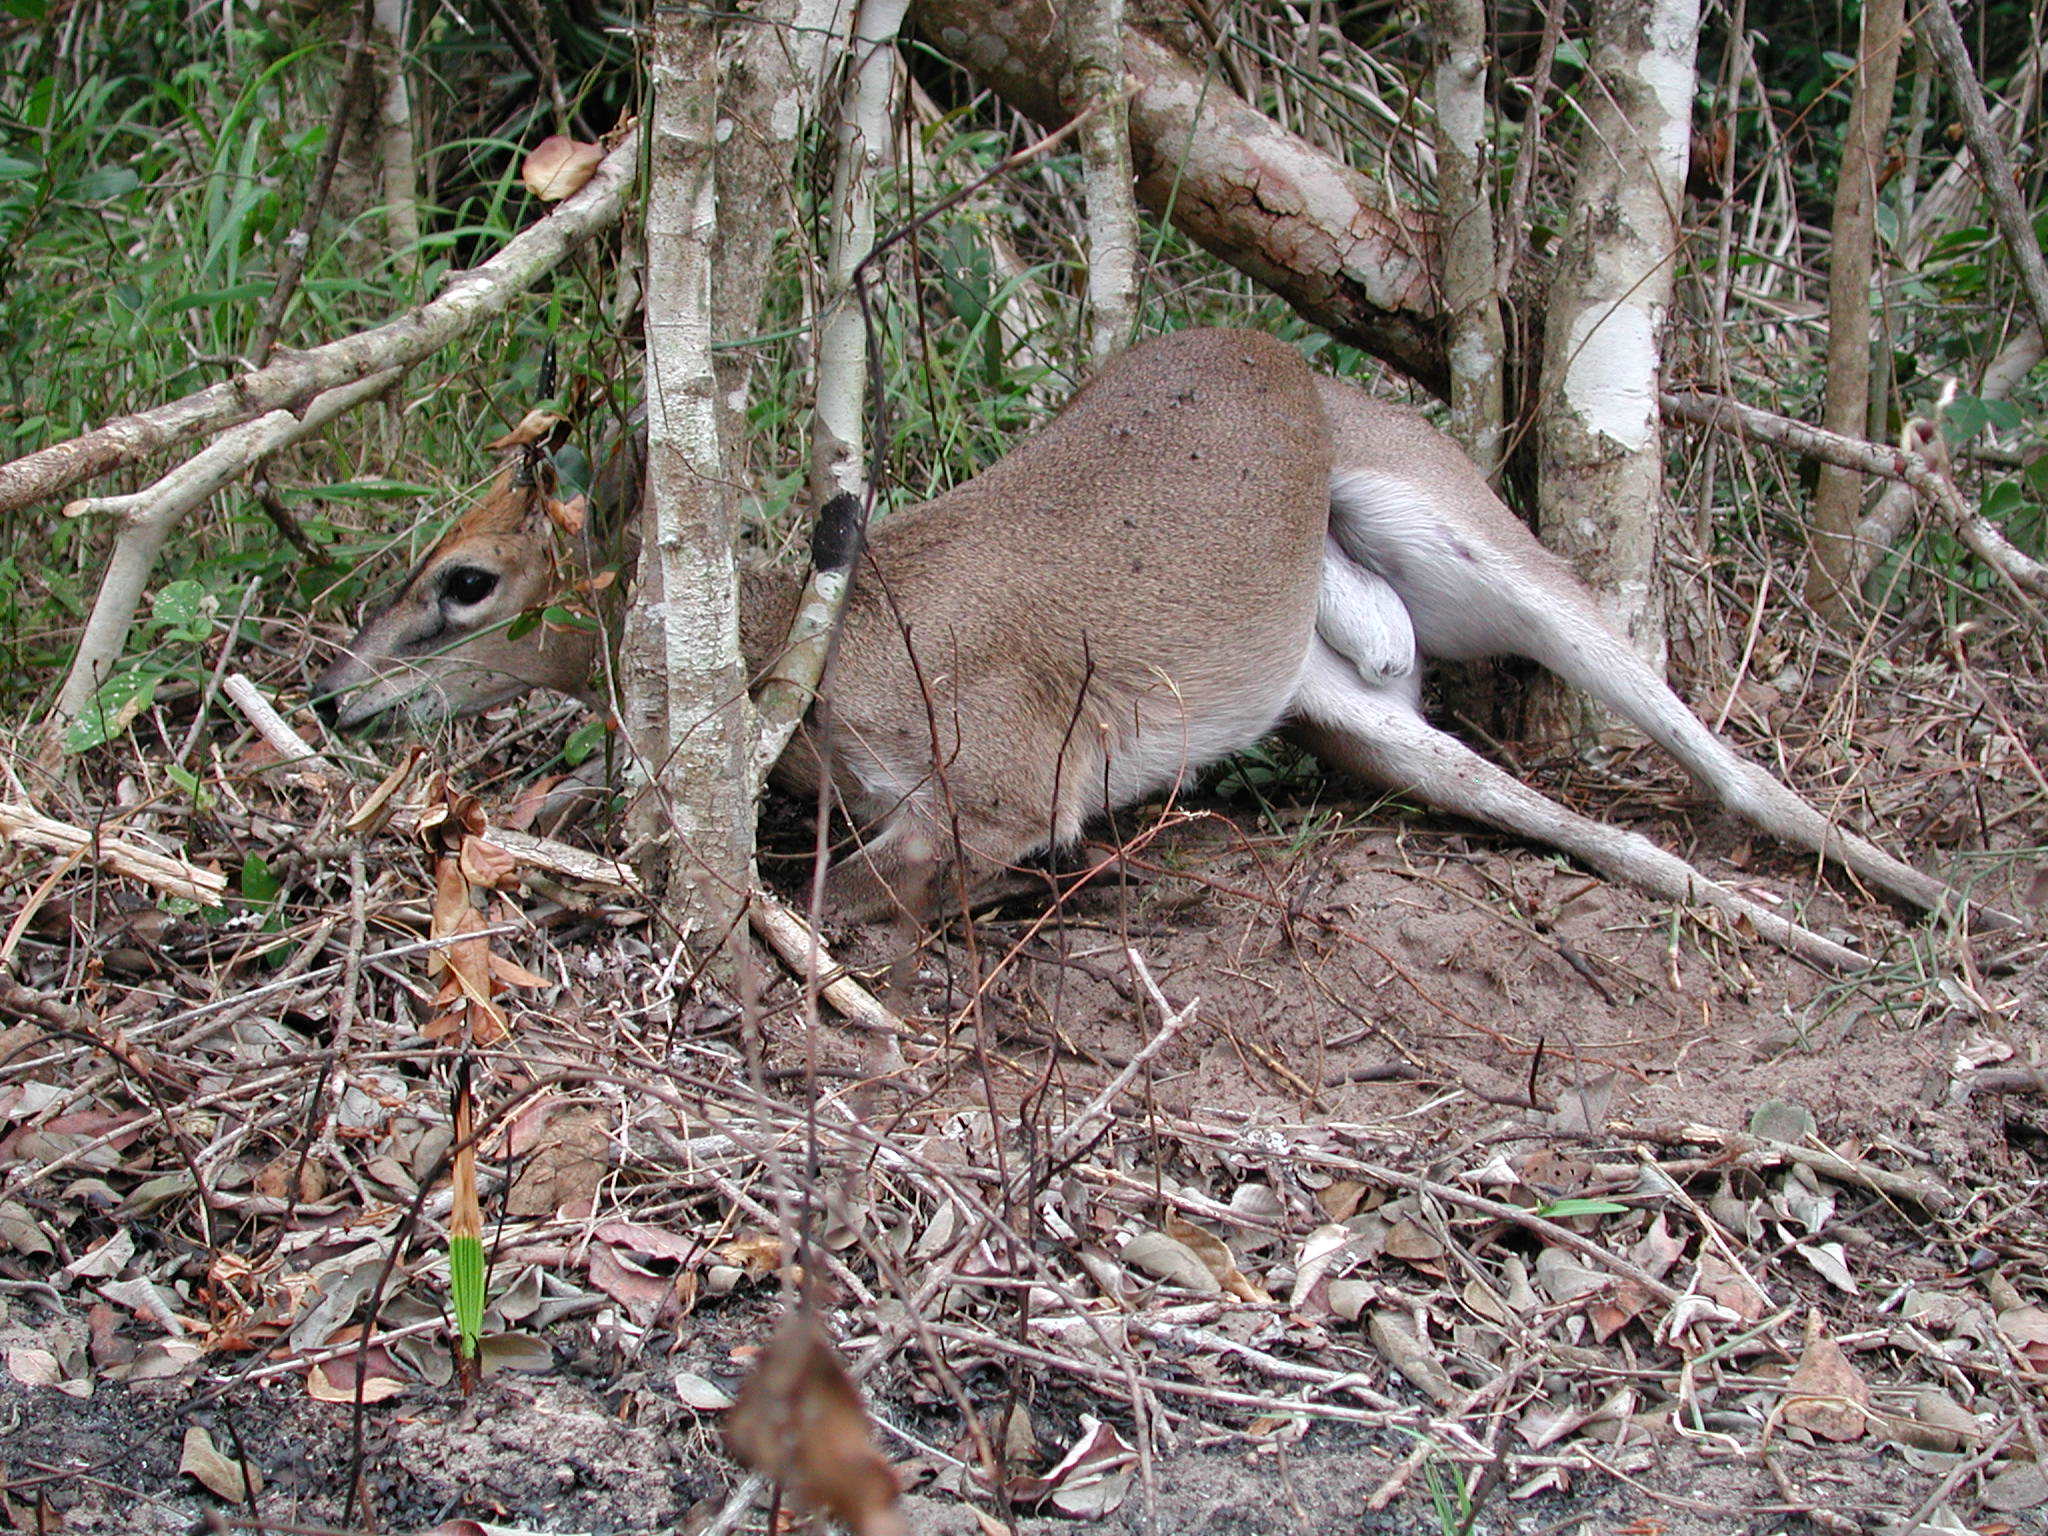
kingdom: Animalia
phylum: Chordata
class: Mammalia
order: Artiodactyla
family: Bovidae
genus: Sylvicapra
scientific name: Sylvicapra grimmia
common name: Bush duiker
